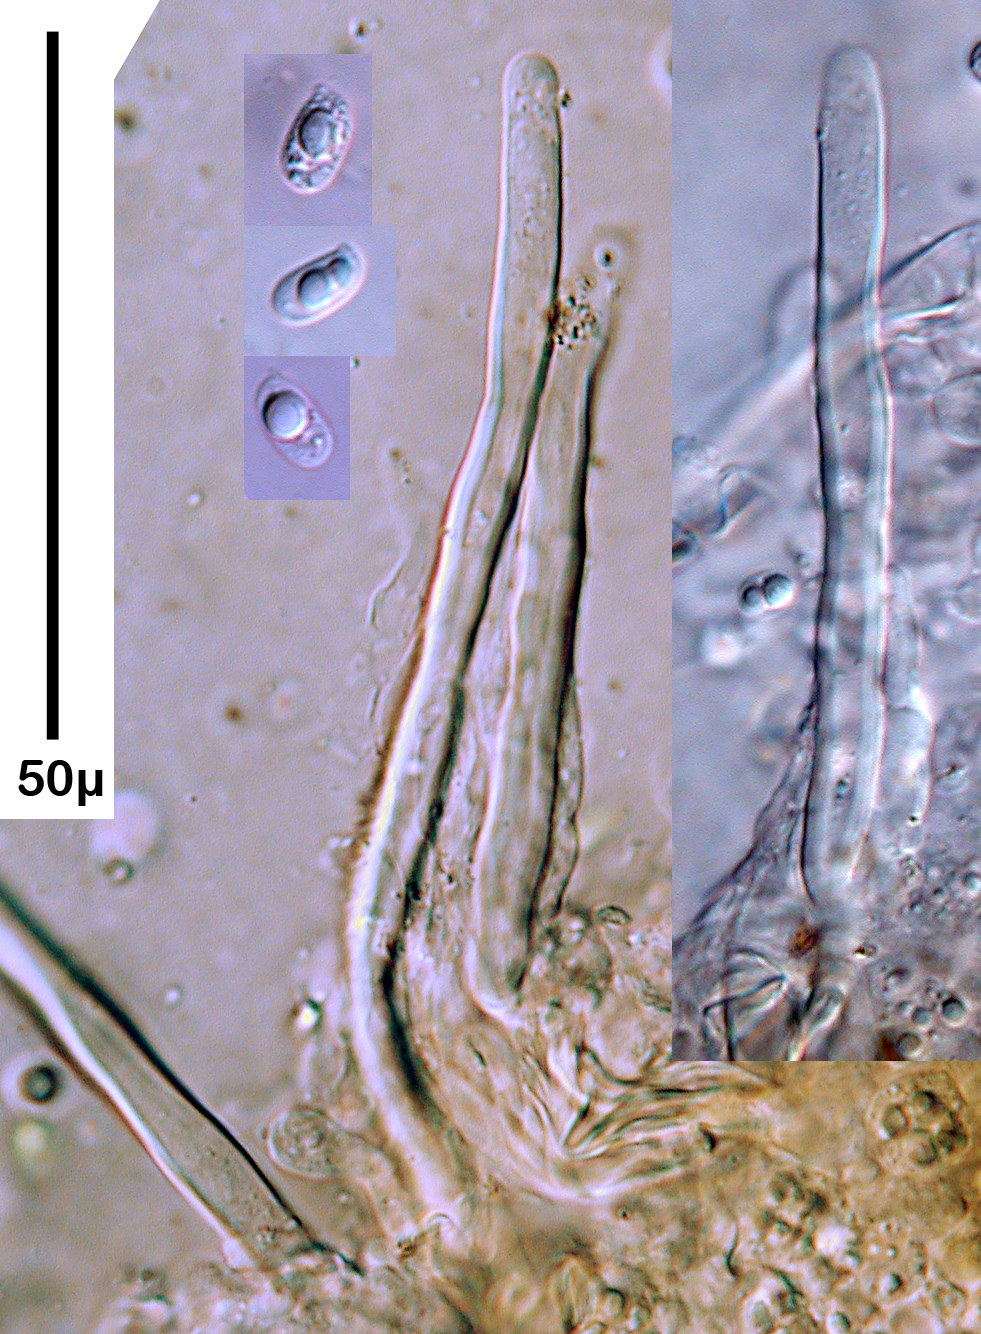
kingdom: Fungi
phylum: Basidiomycota
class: Agaricomycetes
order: Auriculariales
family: Hyaloriaceae
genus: Protomerulius
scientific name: Protomerulius dubius
